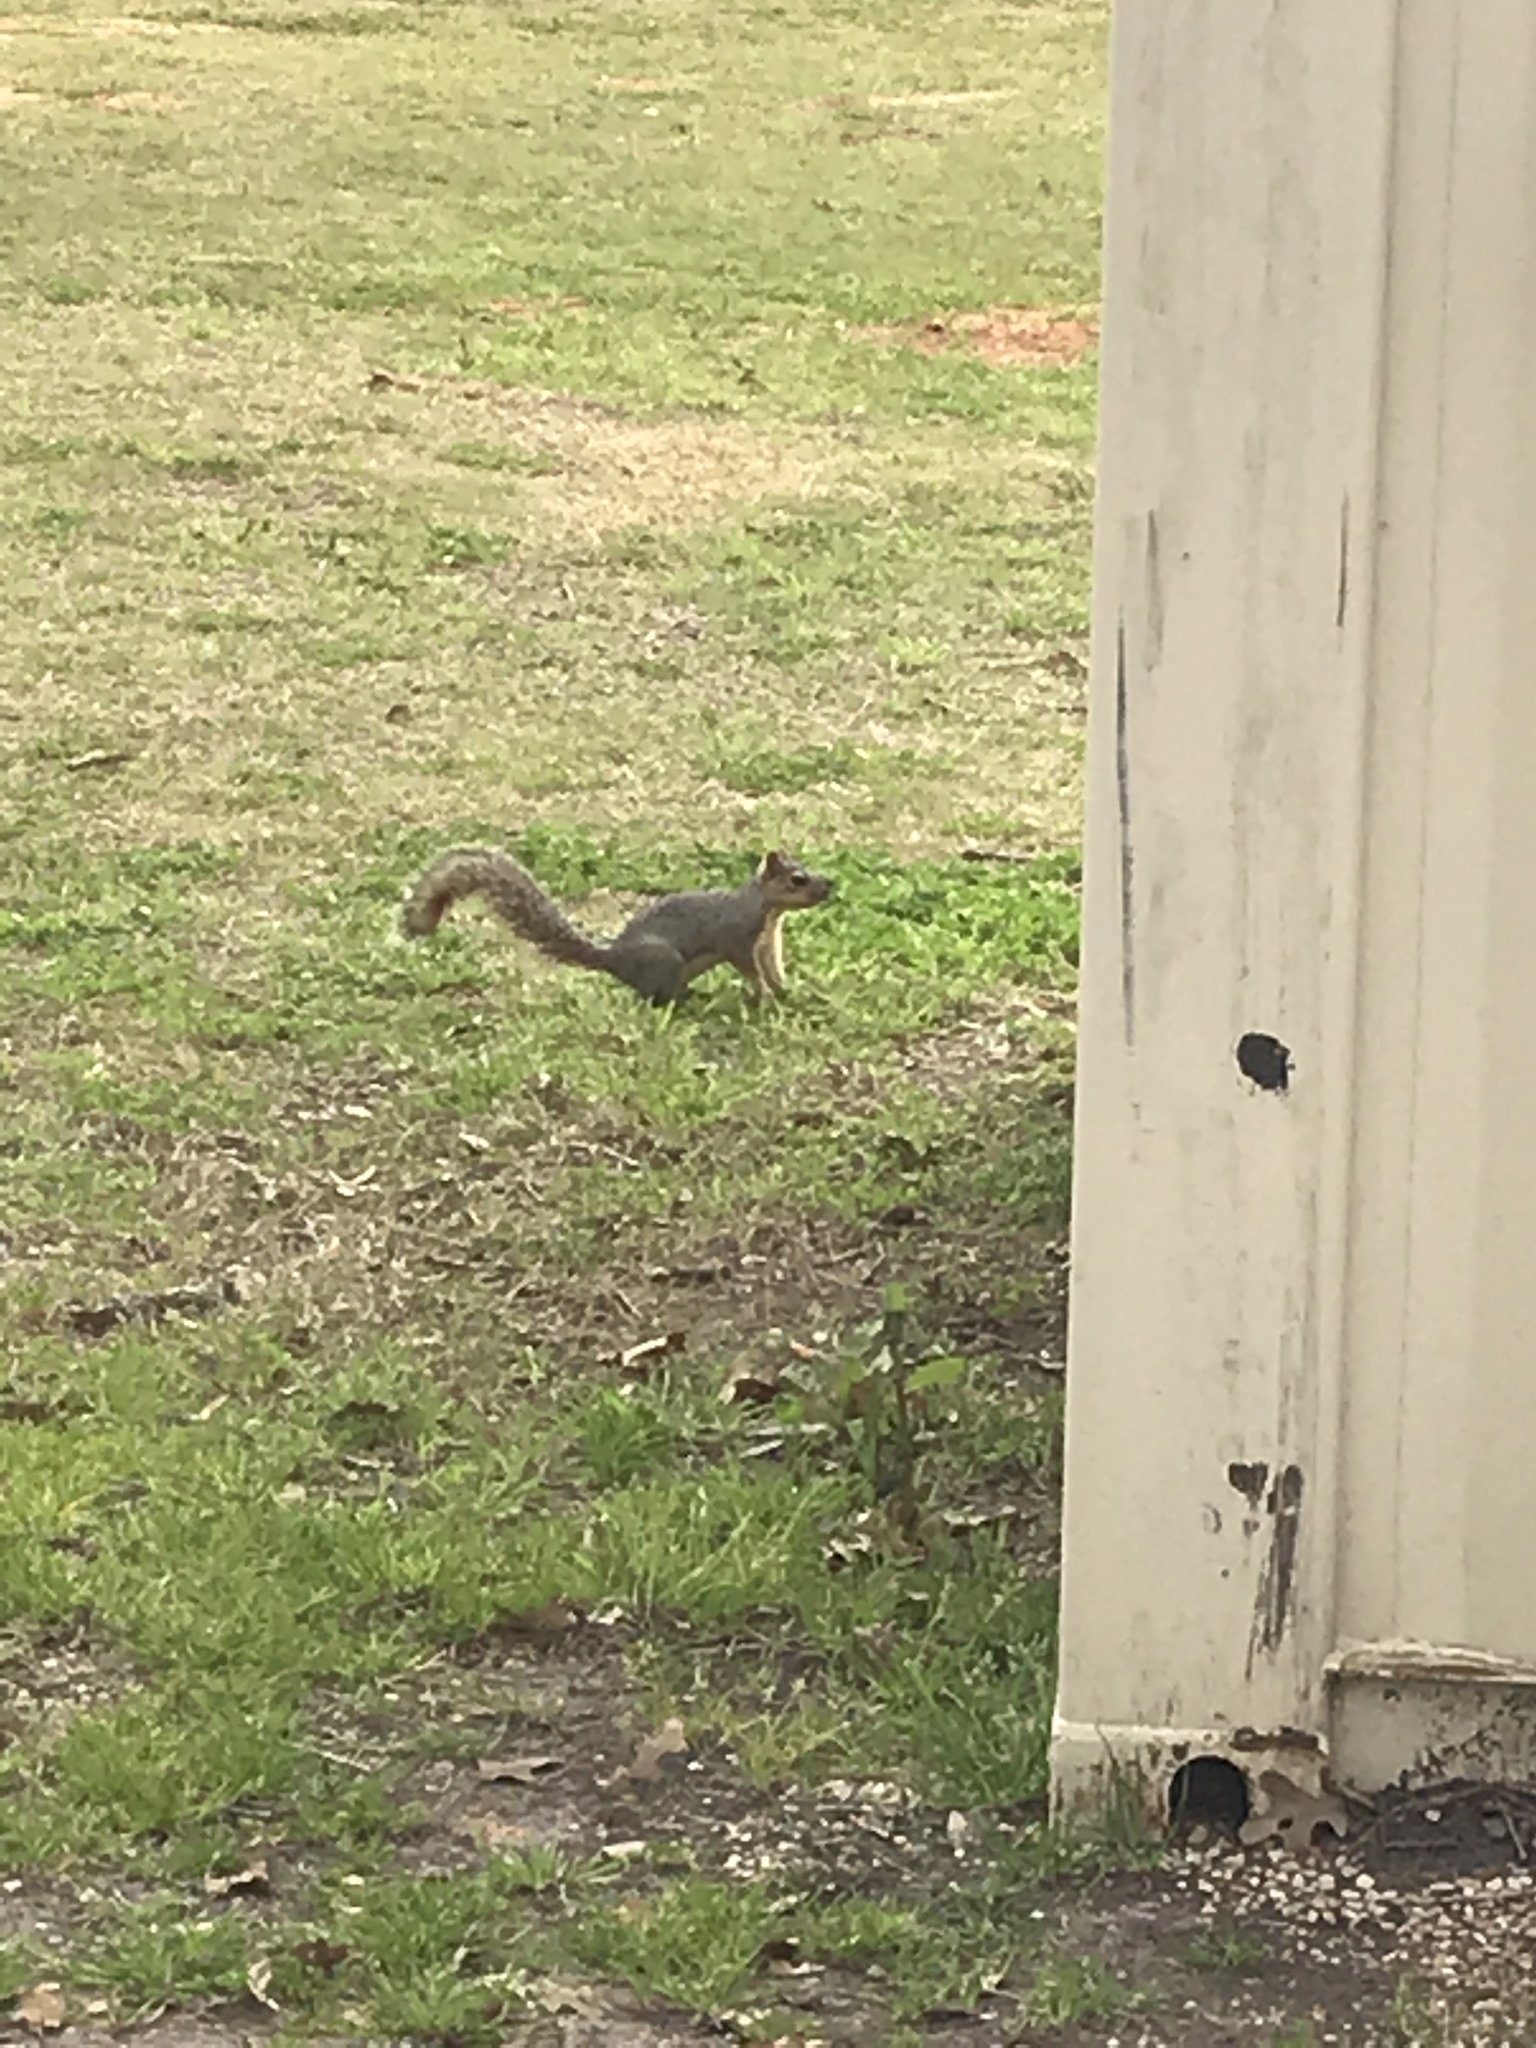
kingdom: Animalia
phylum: Chordata
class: Mammalia
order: Rodentia
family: Sciuridae
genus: Sciurus
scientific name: Sciurus niger
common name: Fox squirrel
